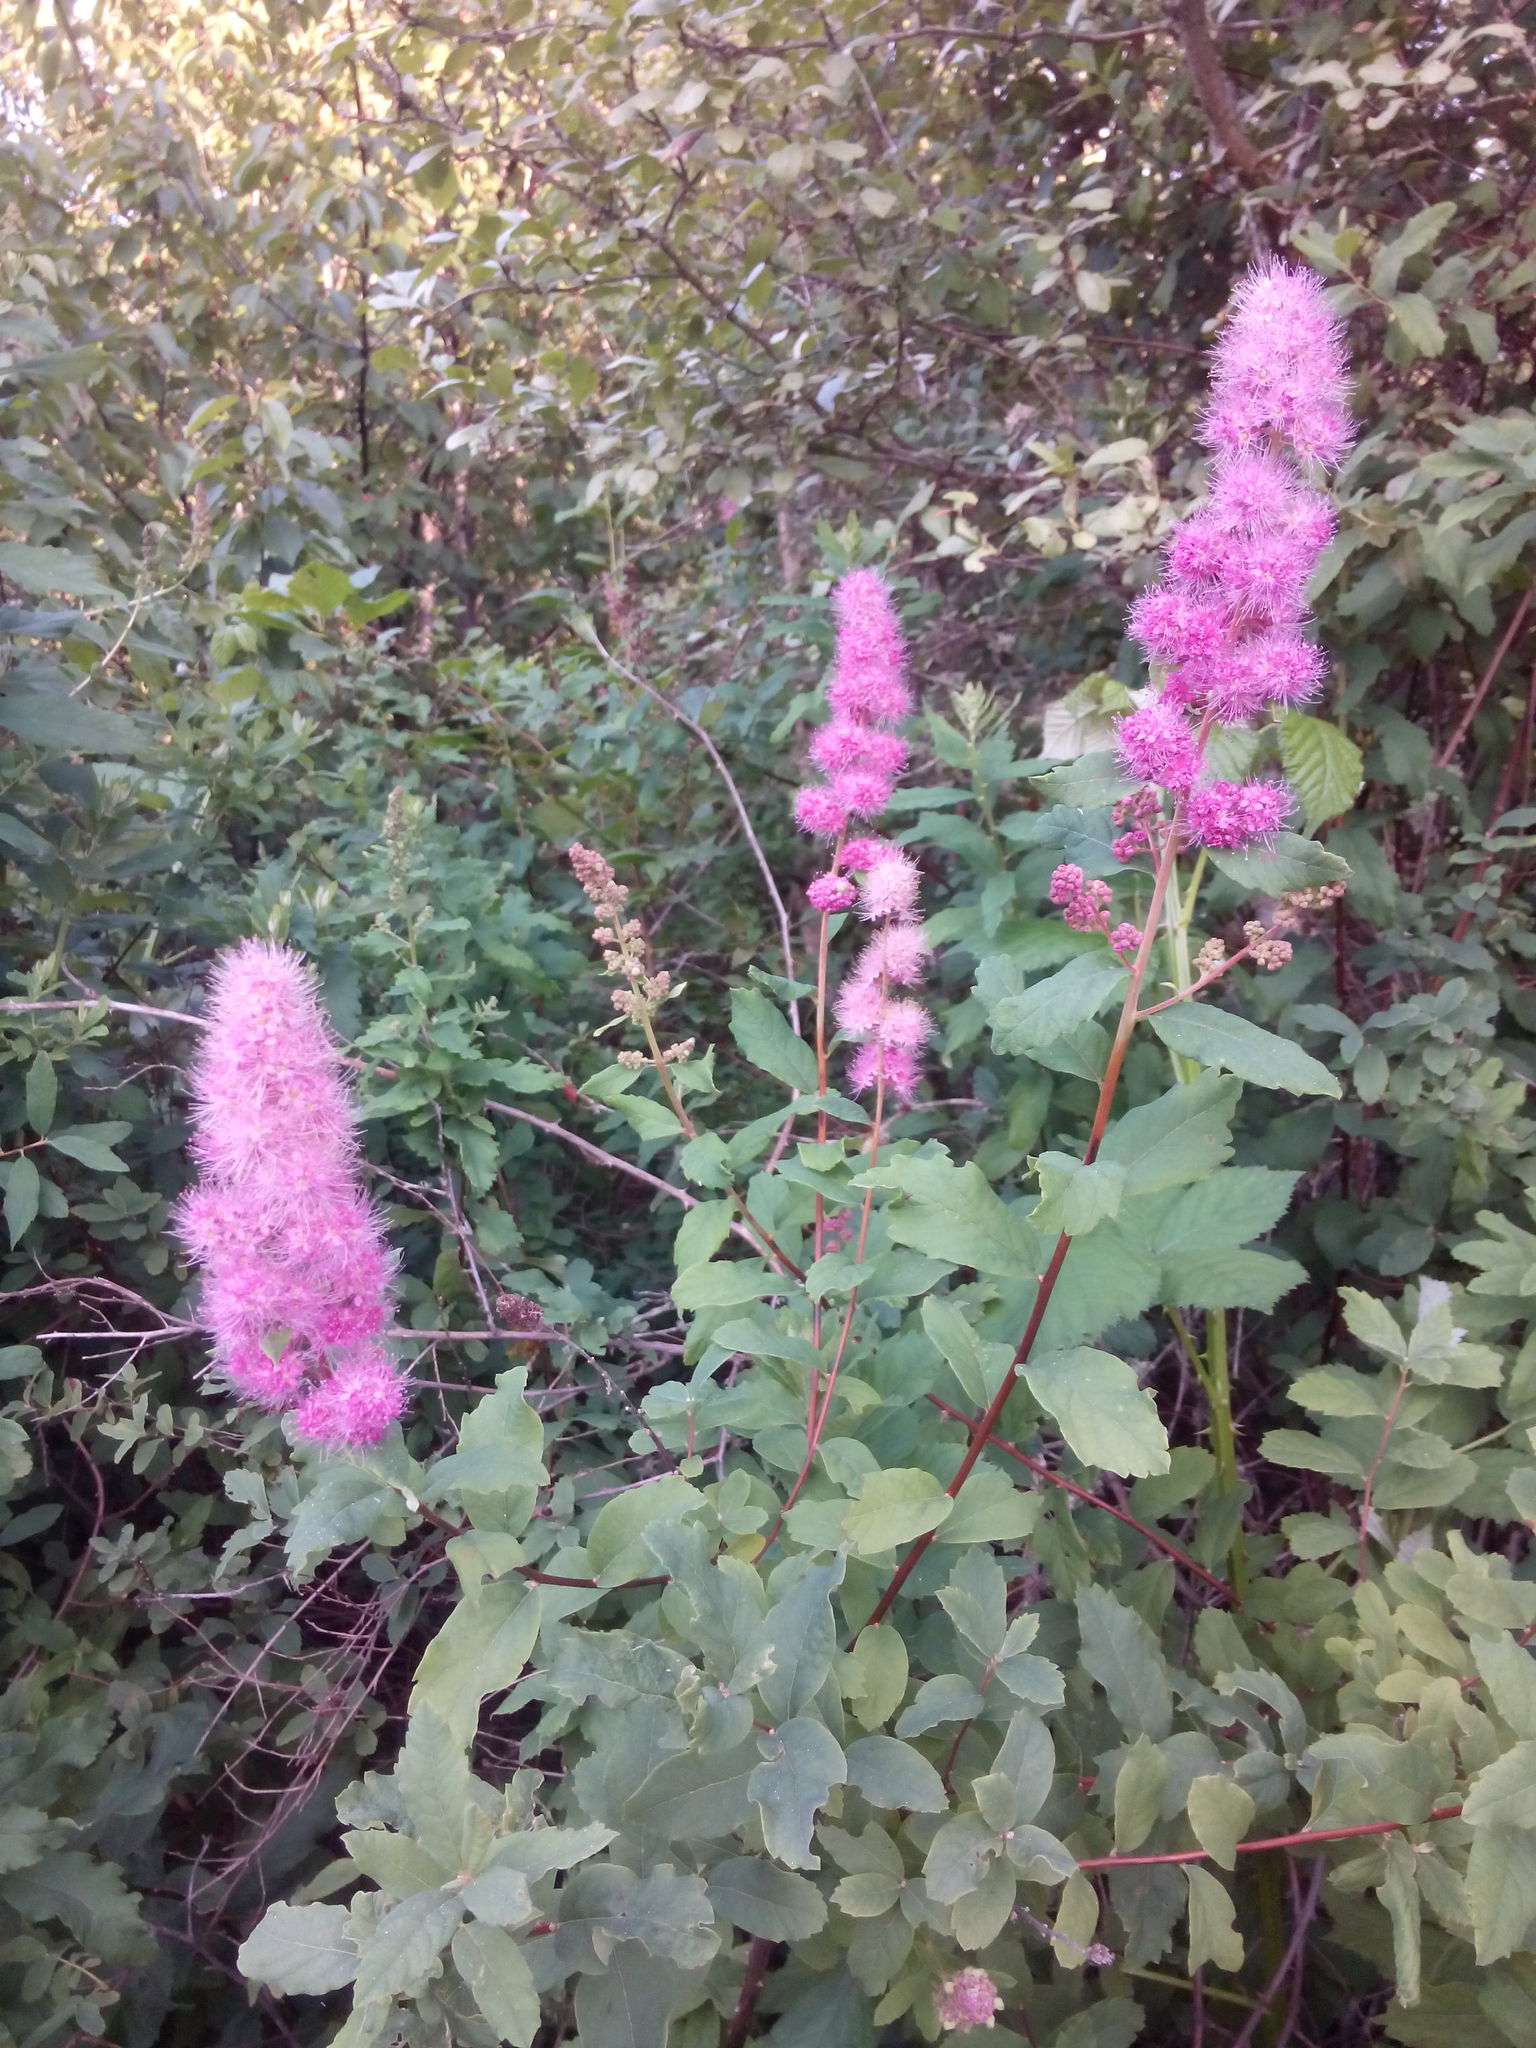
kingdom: Plantae
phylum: Tracheophyta
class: Magnoliopsida
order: Rosales
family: Rosaceae
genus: Spiraea
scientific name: Spiraea douglasii
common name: Steeplebush
